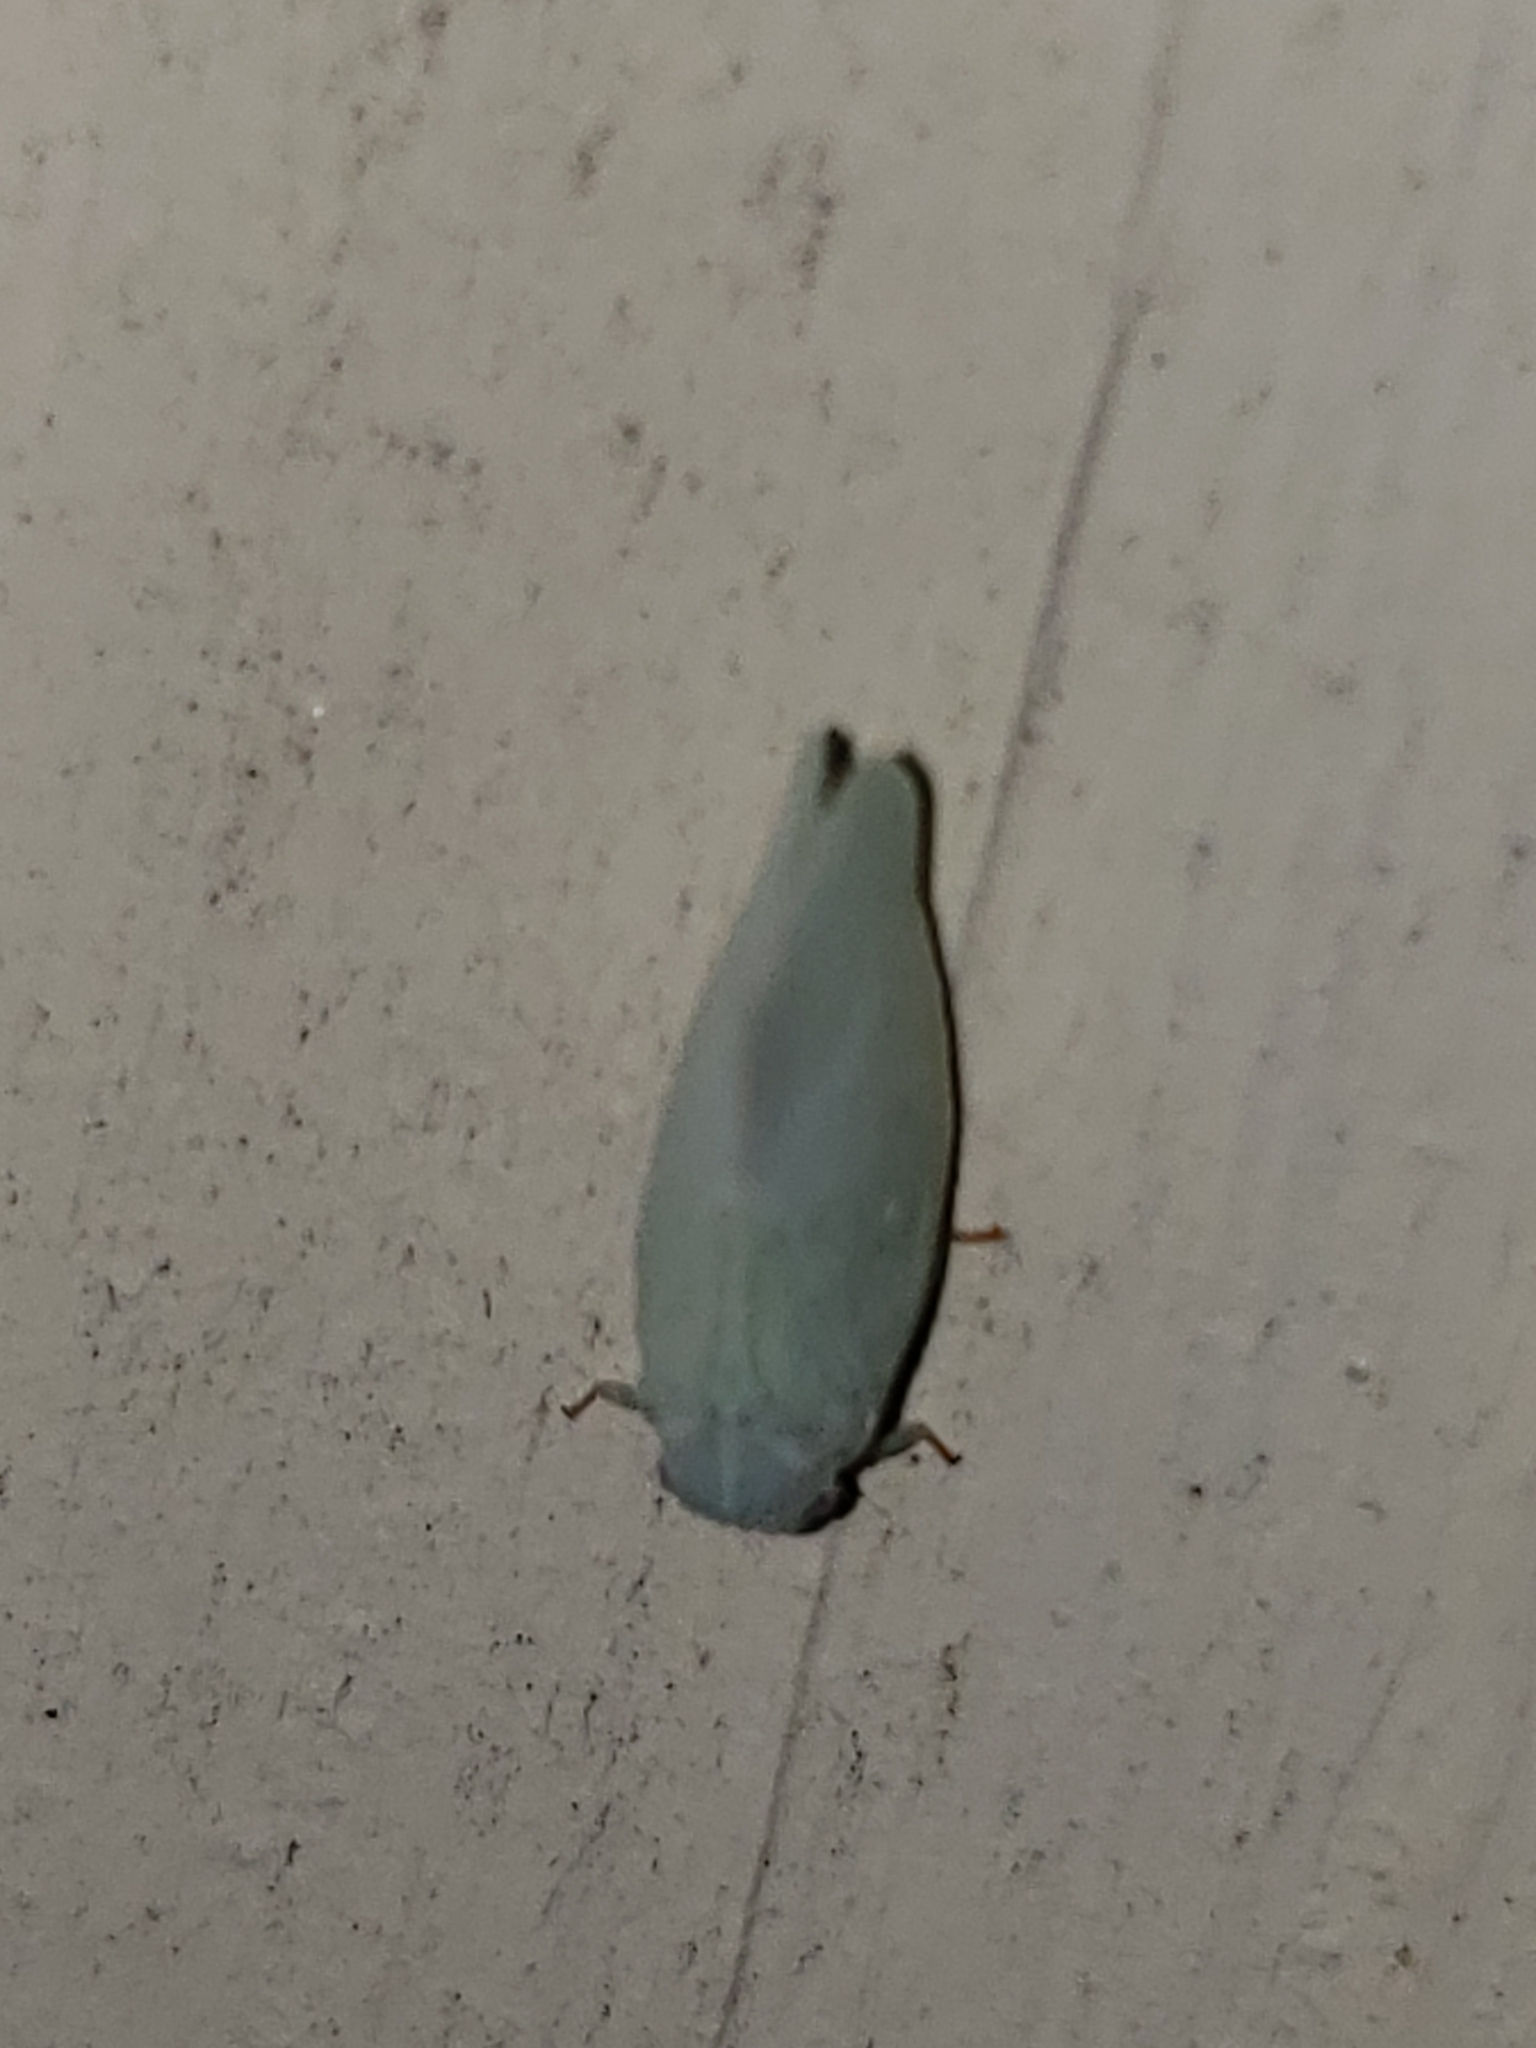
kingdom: Animalia
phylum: Arthropoda
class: Insecta
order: Hemiptera
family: Flatidae
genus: Flatormenis
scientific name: Flatormenis proxima
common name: Northern flatid planthopper
